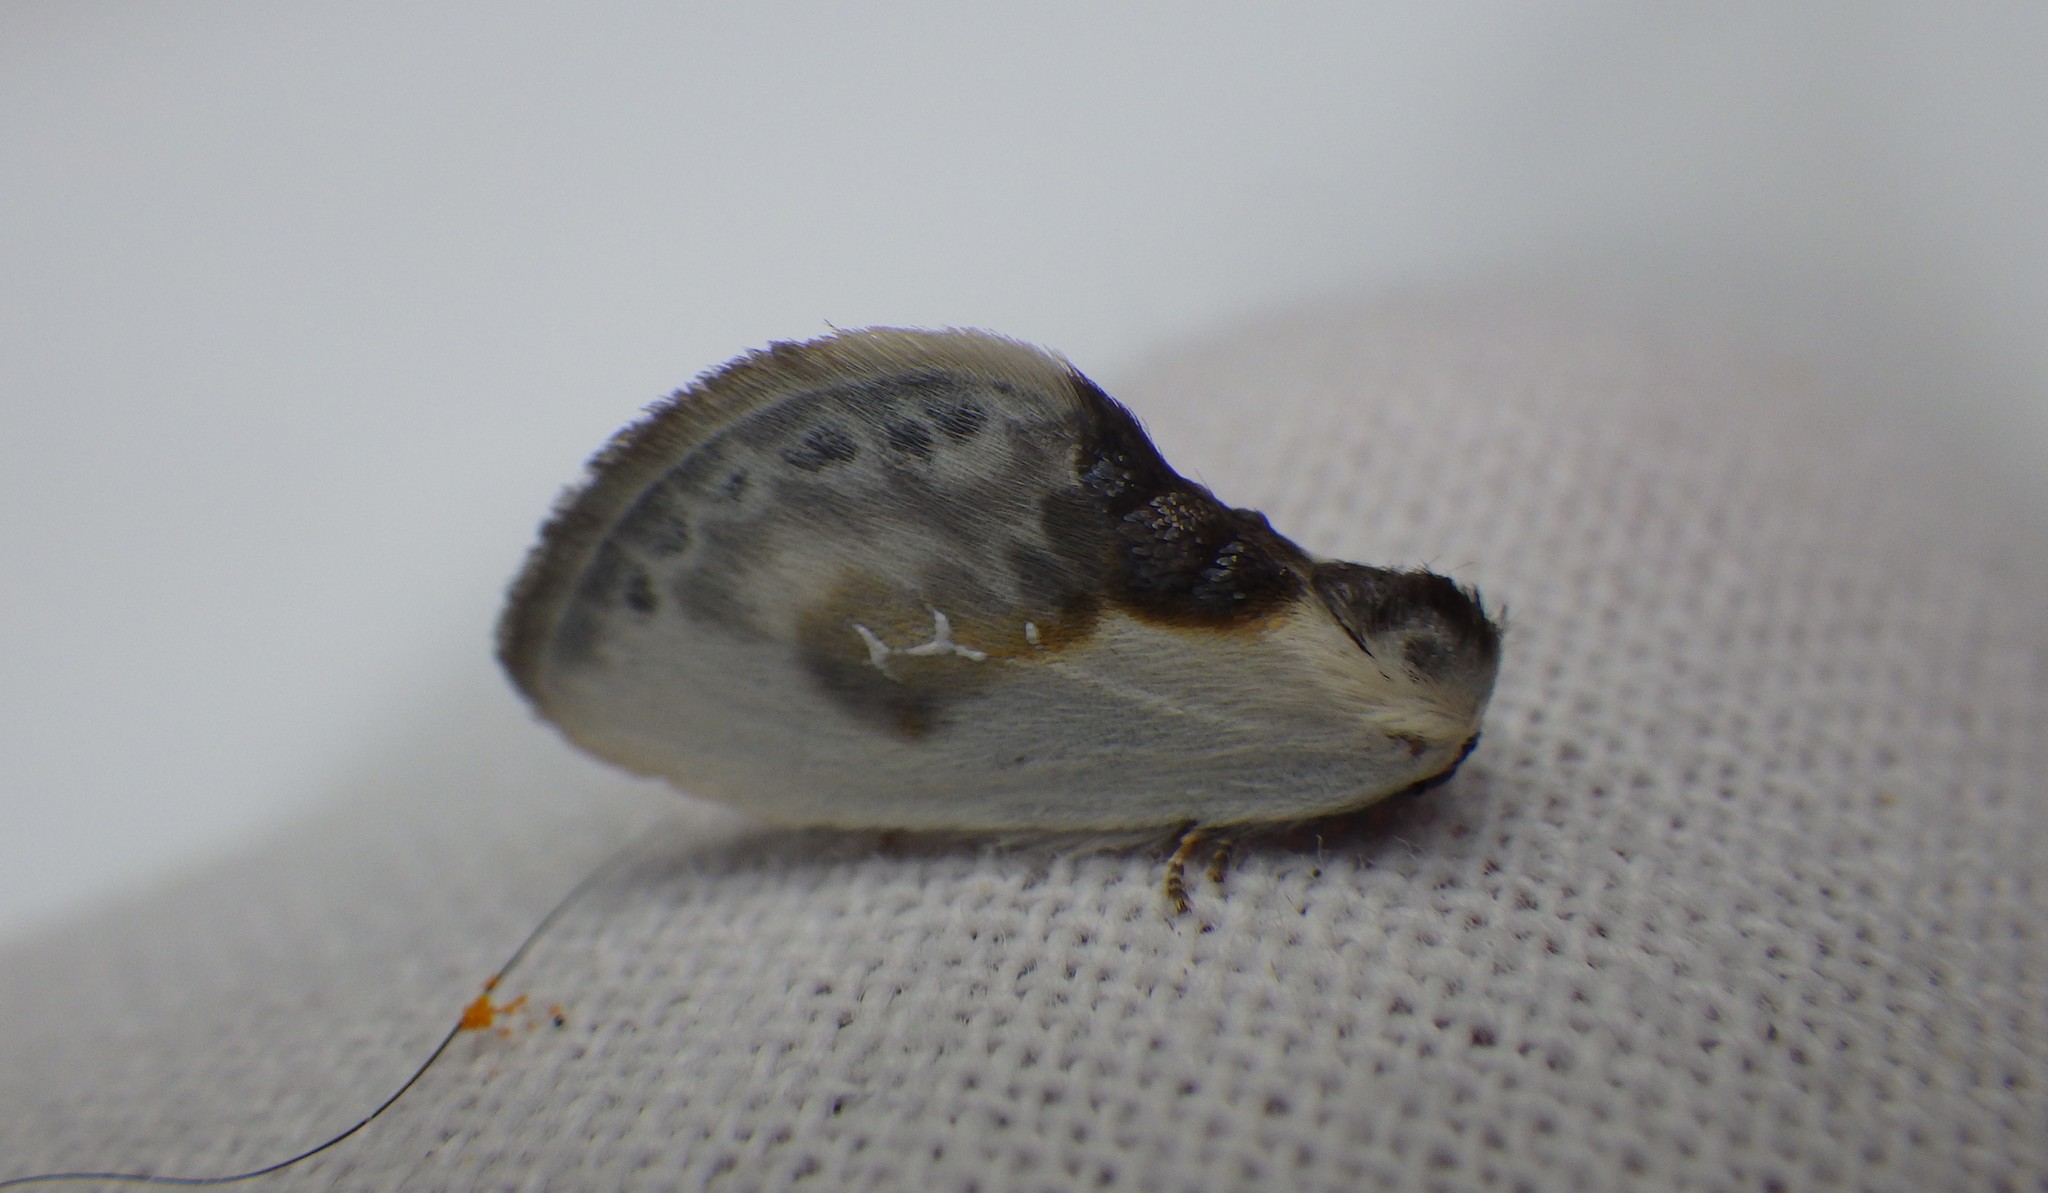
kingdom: Animalia
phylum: Arthropoda
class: Insecta
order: Lepidoptera
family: Drepanidae
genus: Cilix
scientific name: Cilix glaucata
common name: Chinese character
